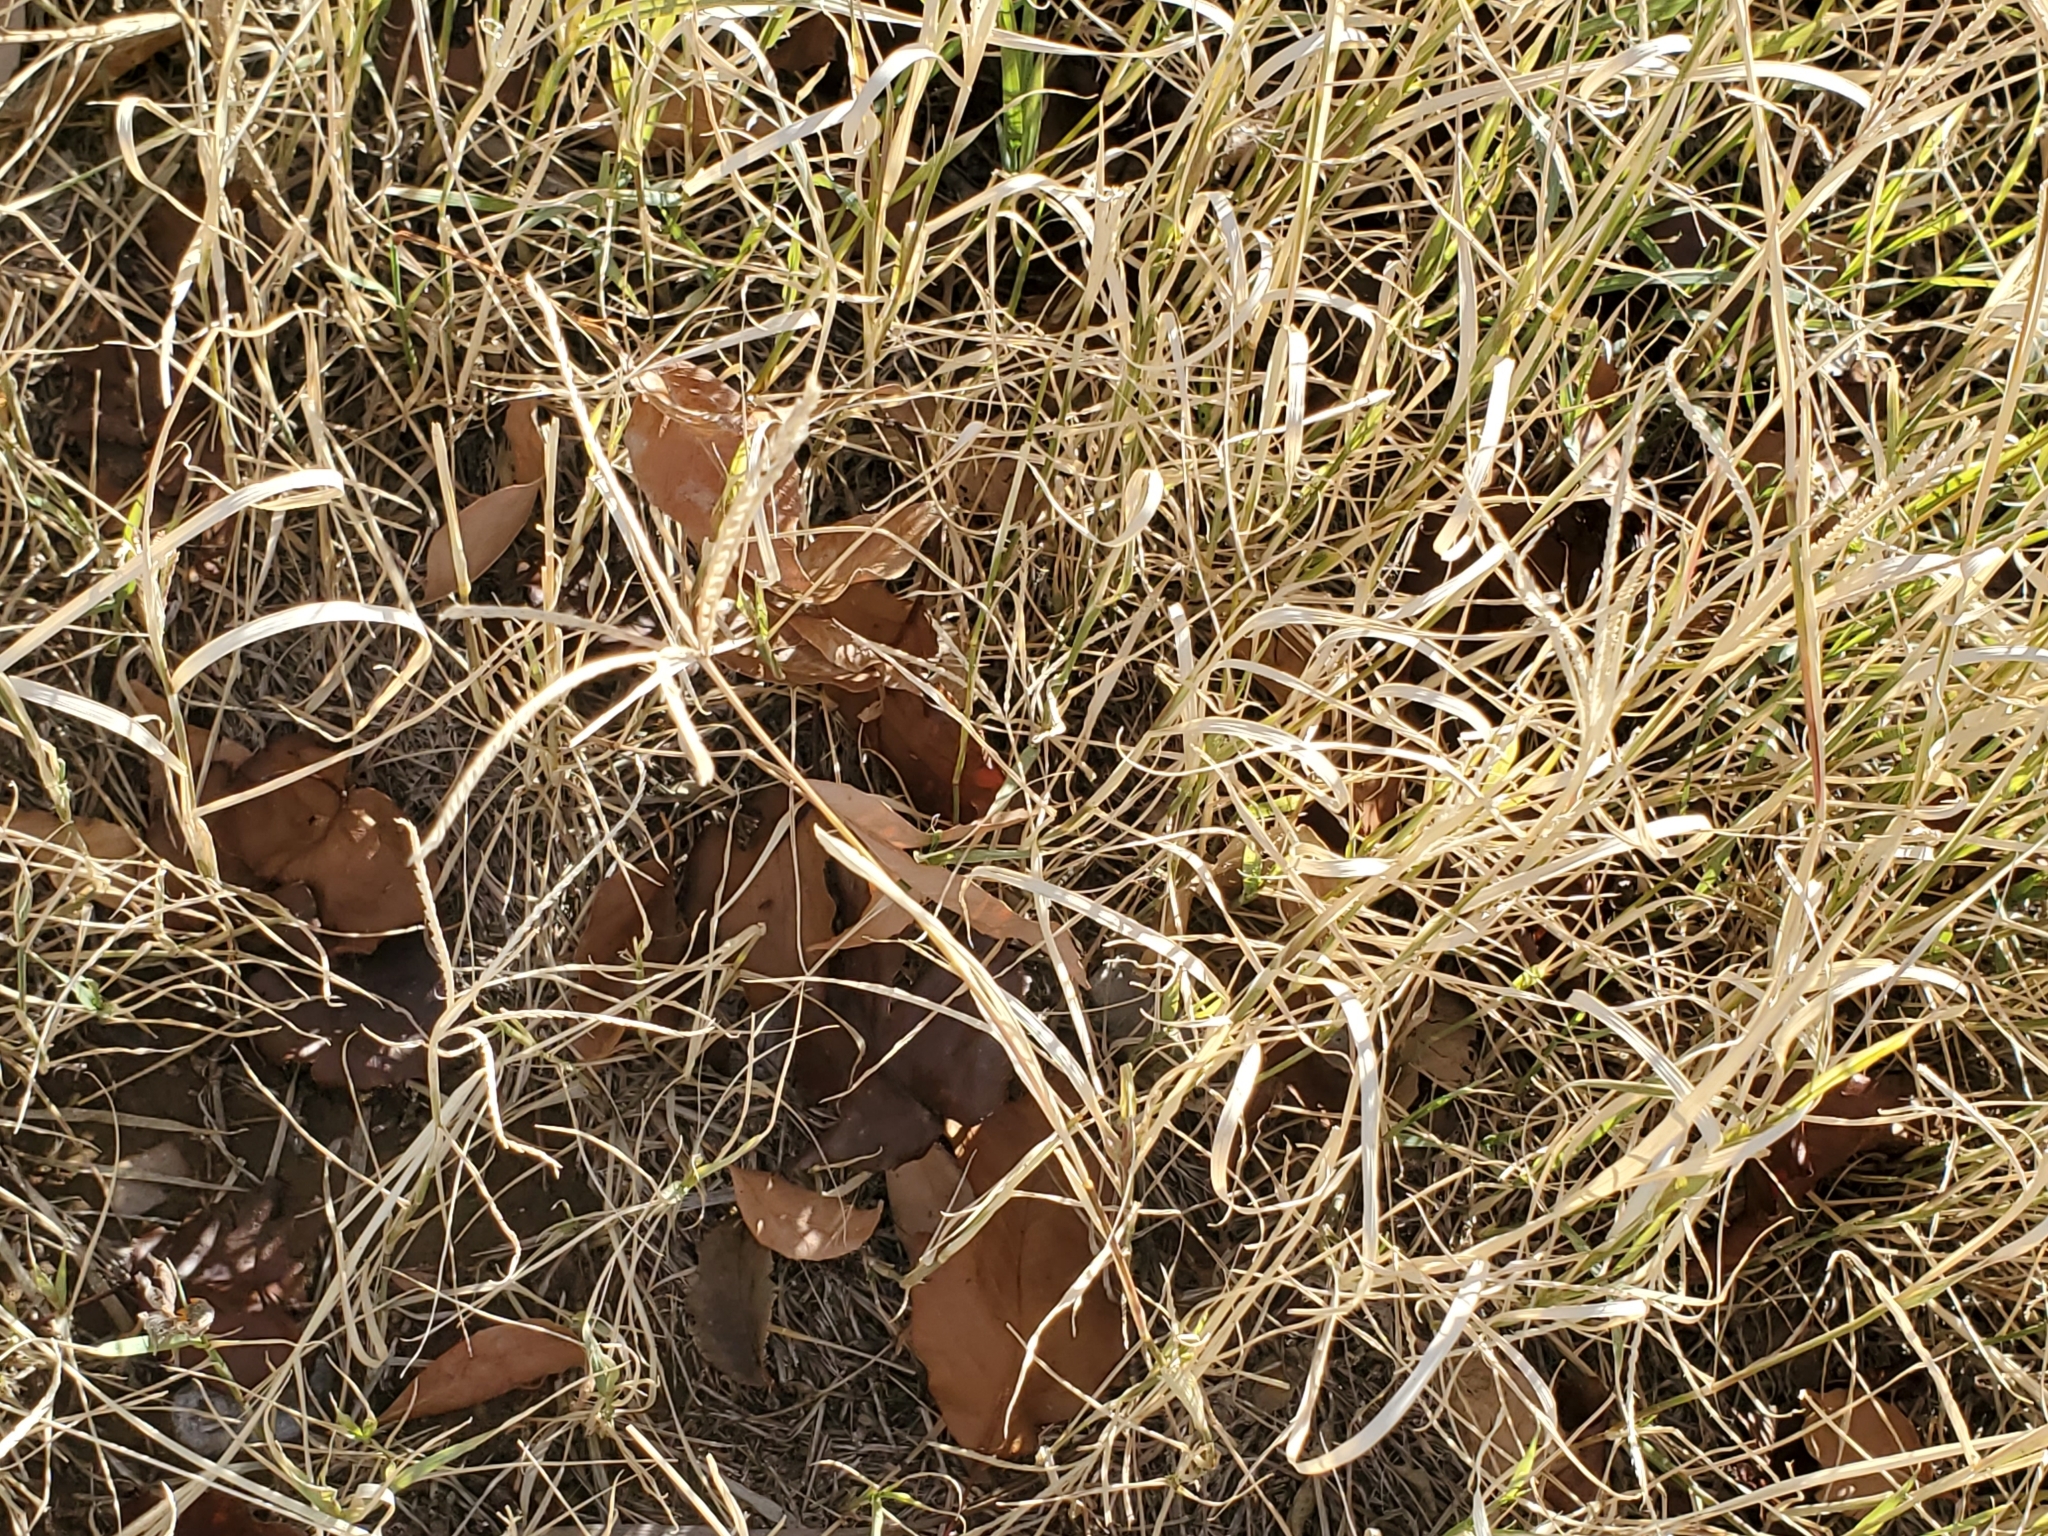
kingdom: Plantae
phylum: Tracheophyta
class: Liliopsida
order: Poales
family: Poaceae
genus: Cynodon
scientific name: Cynodon dactylon
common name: Bermuda grass
